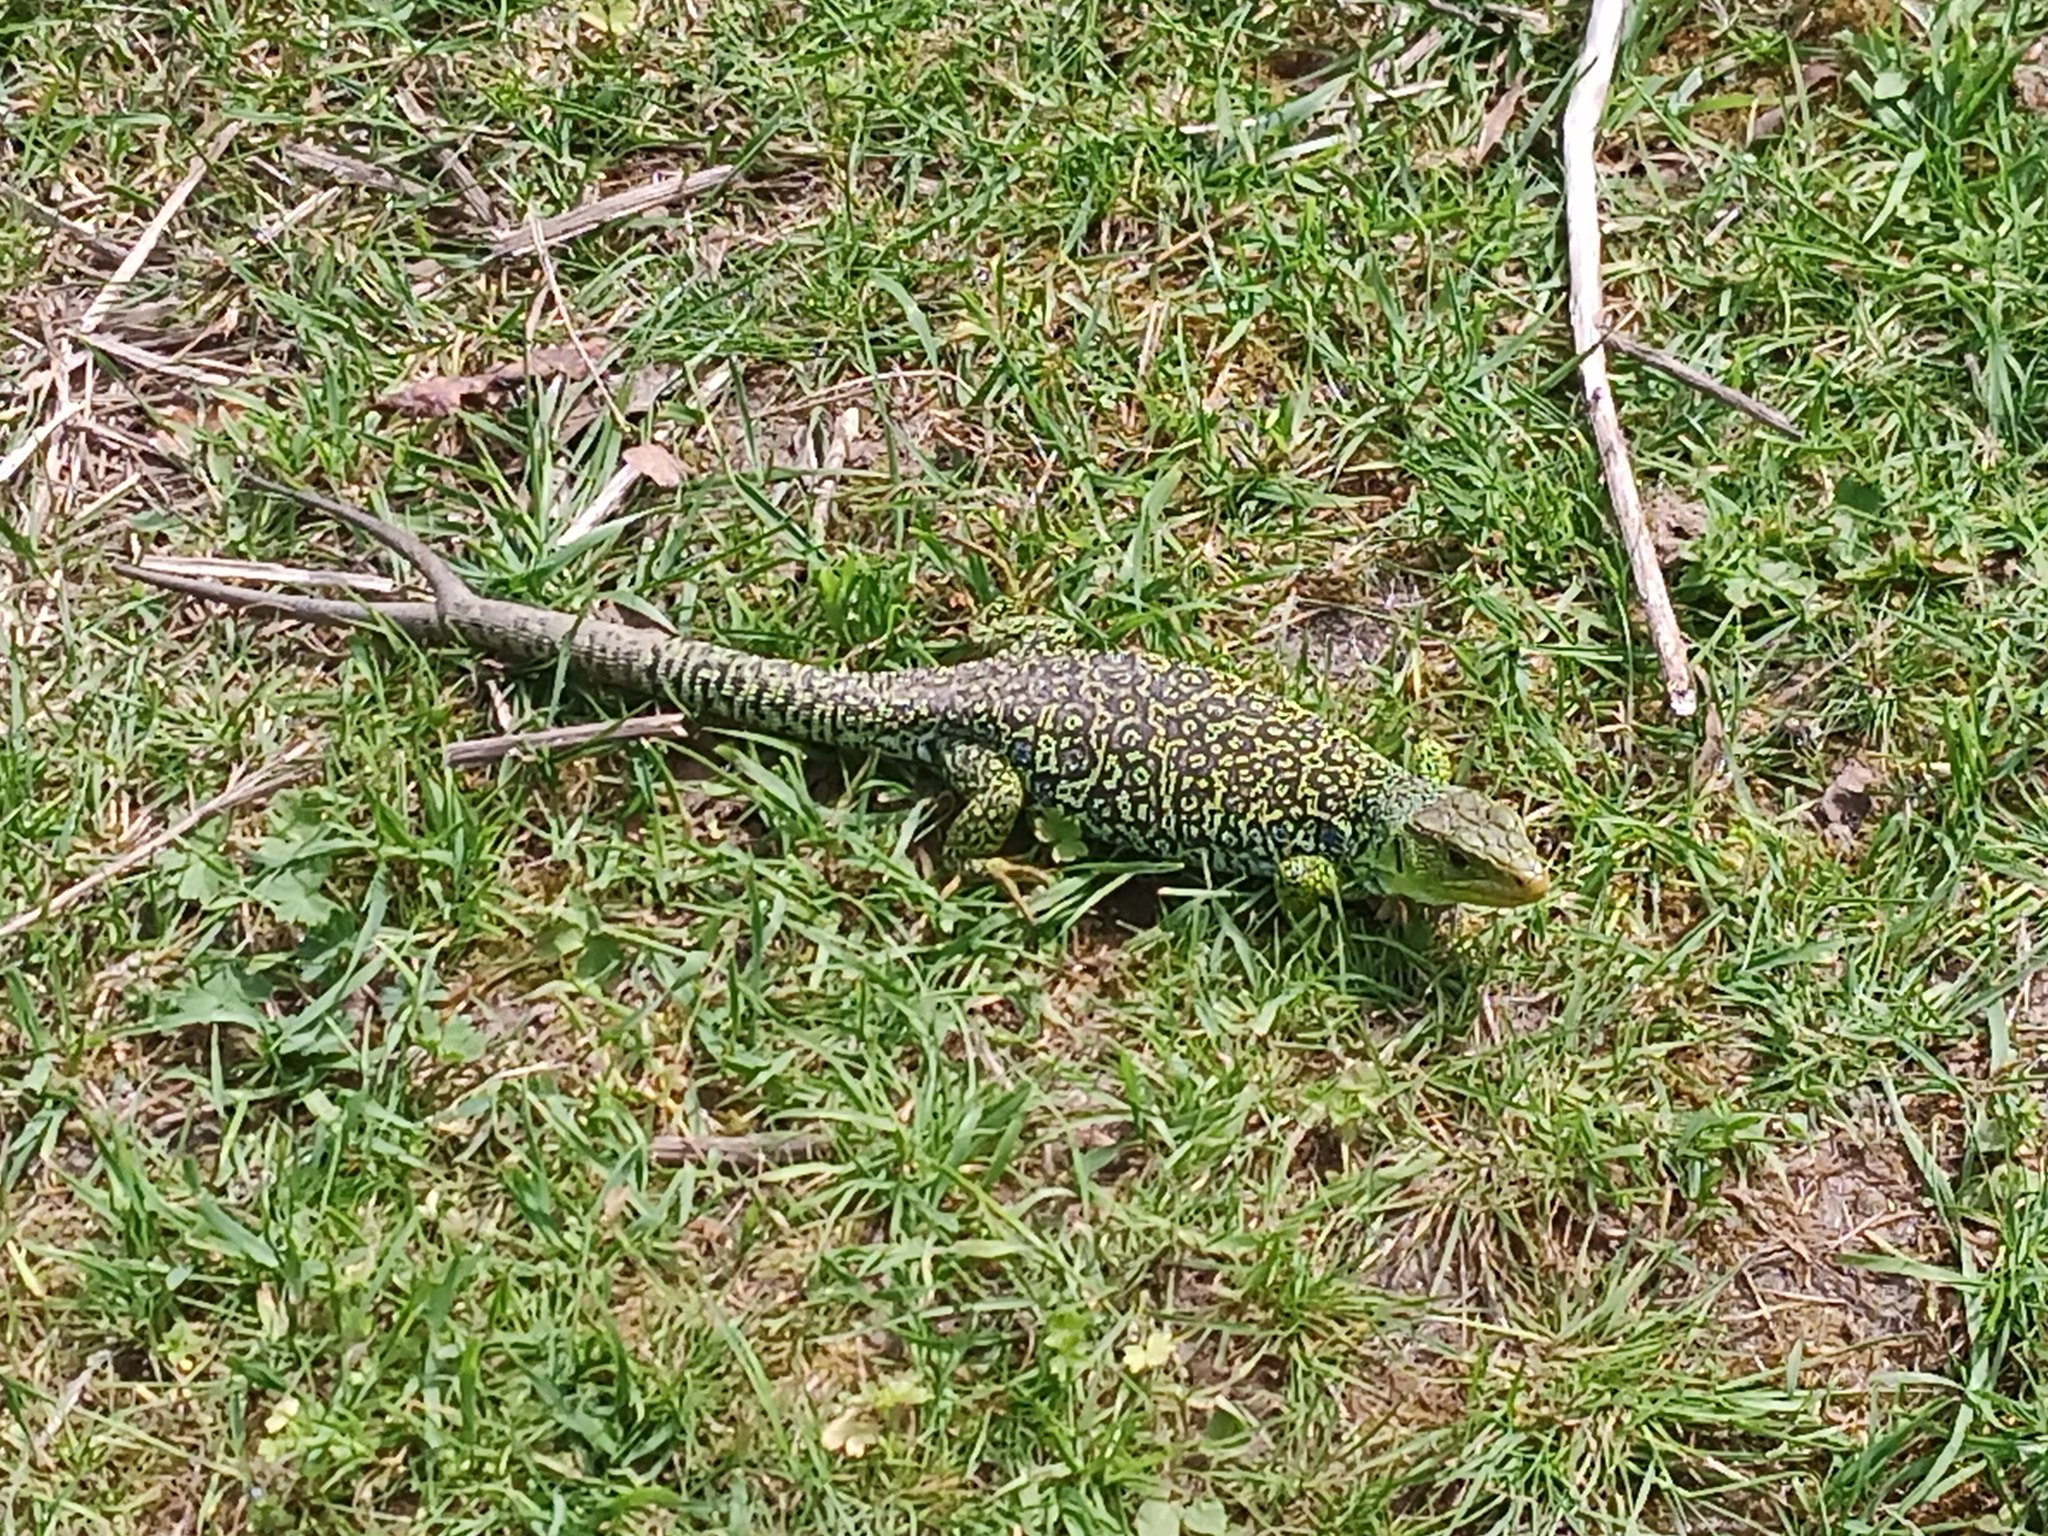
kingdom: Animalia
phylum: Chordata
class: Squamata
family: Lacertidae
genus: Timon
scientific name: Timon lepidus
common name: Ocellated lizard
